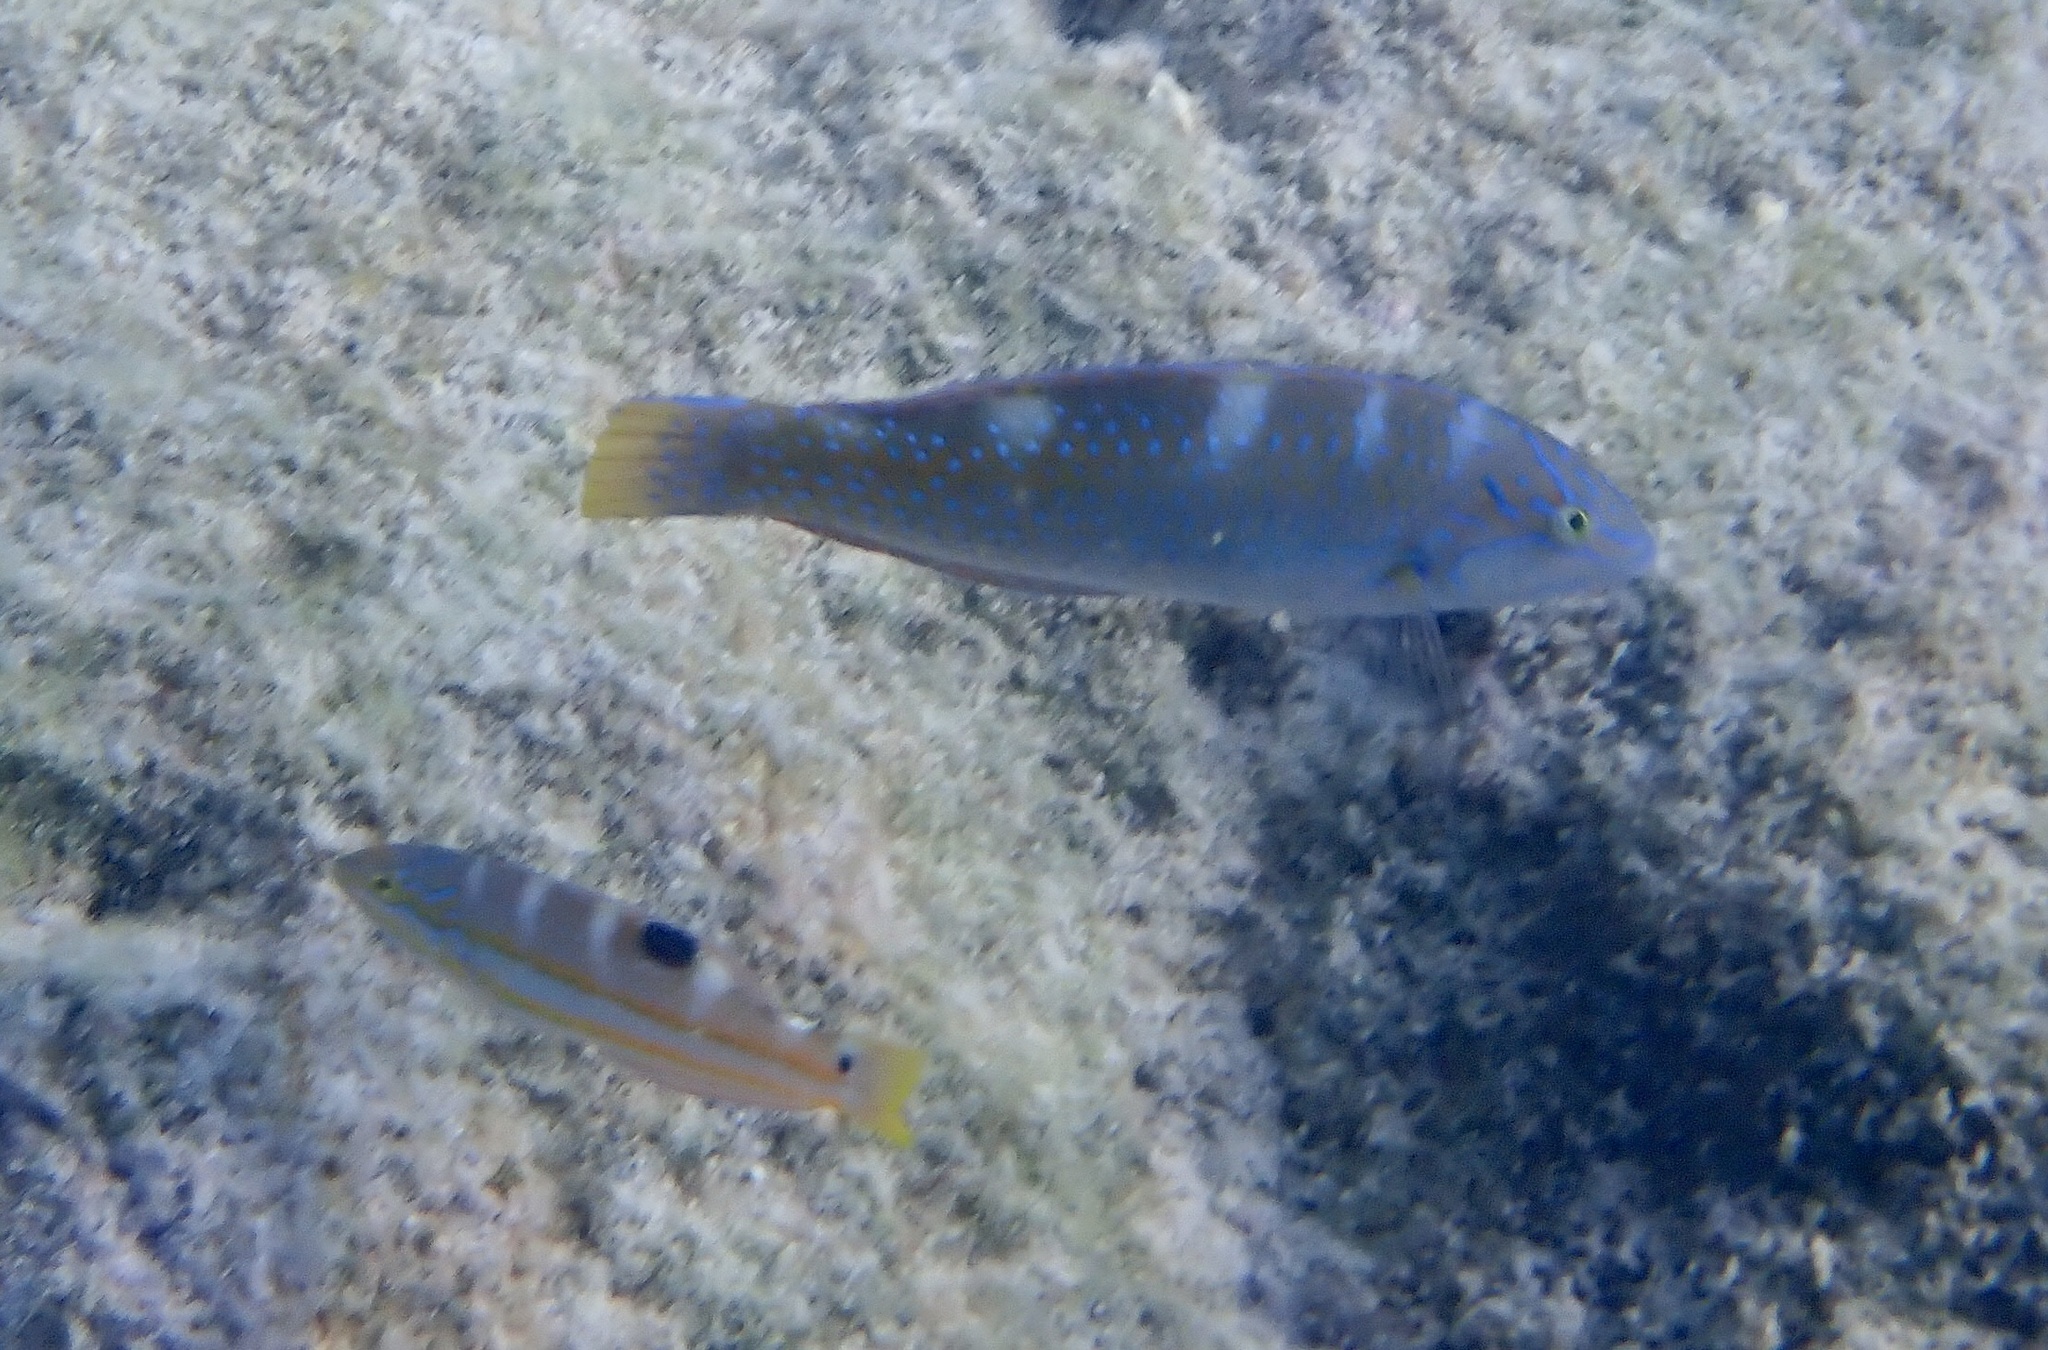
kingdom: Animalia
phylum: Chordata
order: Perciformes
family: Labridae
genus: Halichoeres
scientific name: Halichoeres radiatus
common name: Puddingwife
